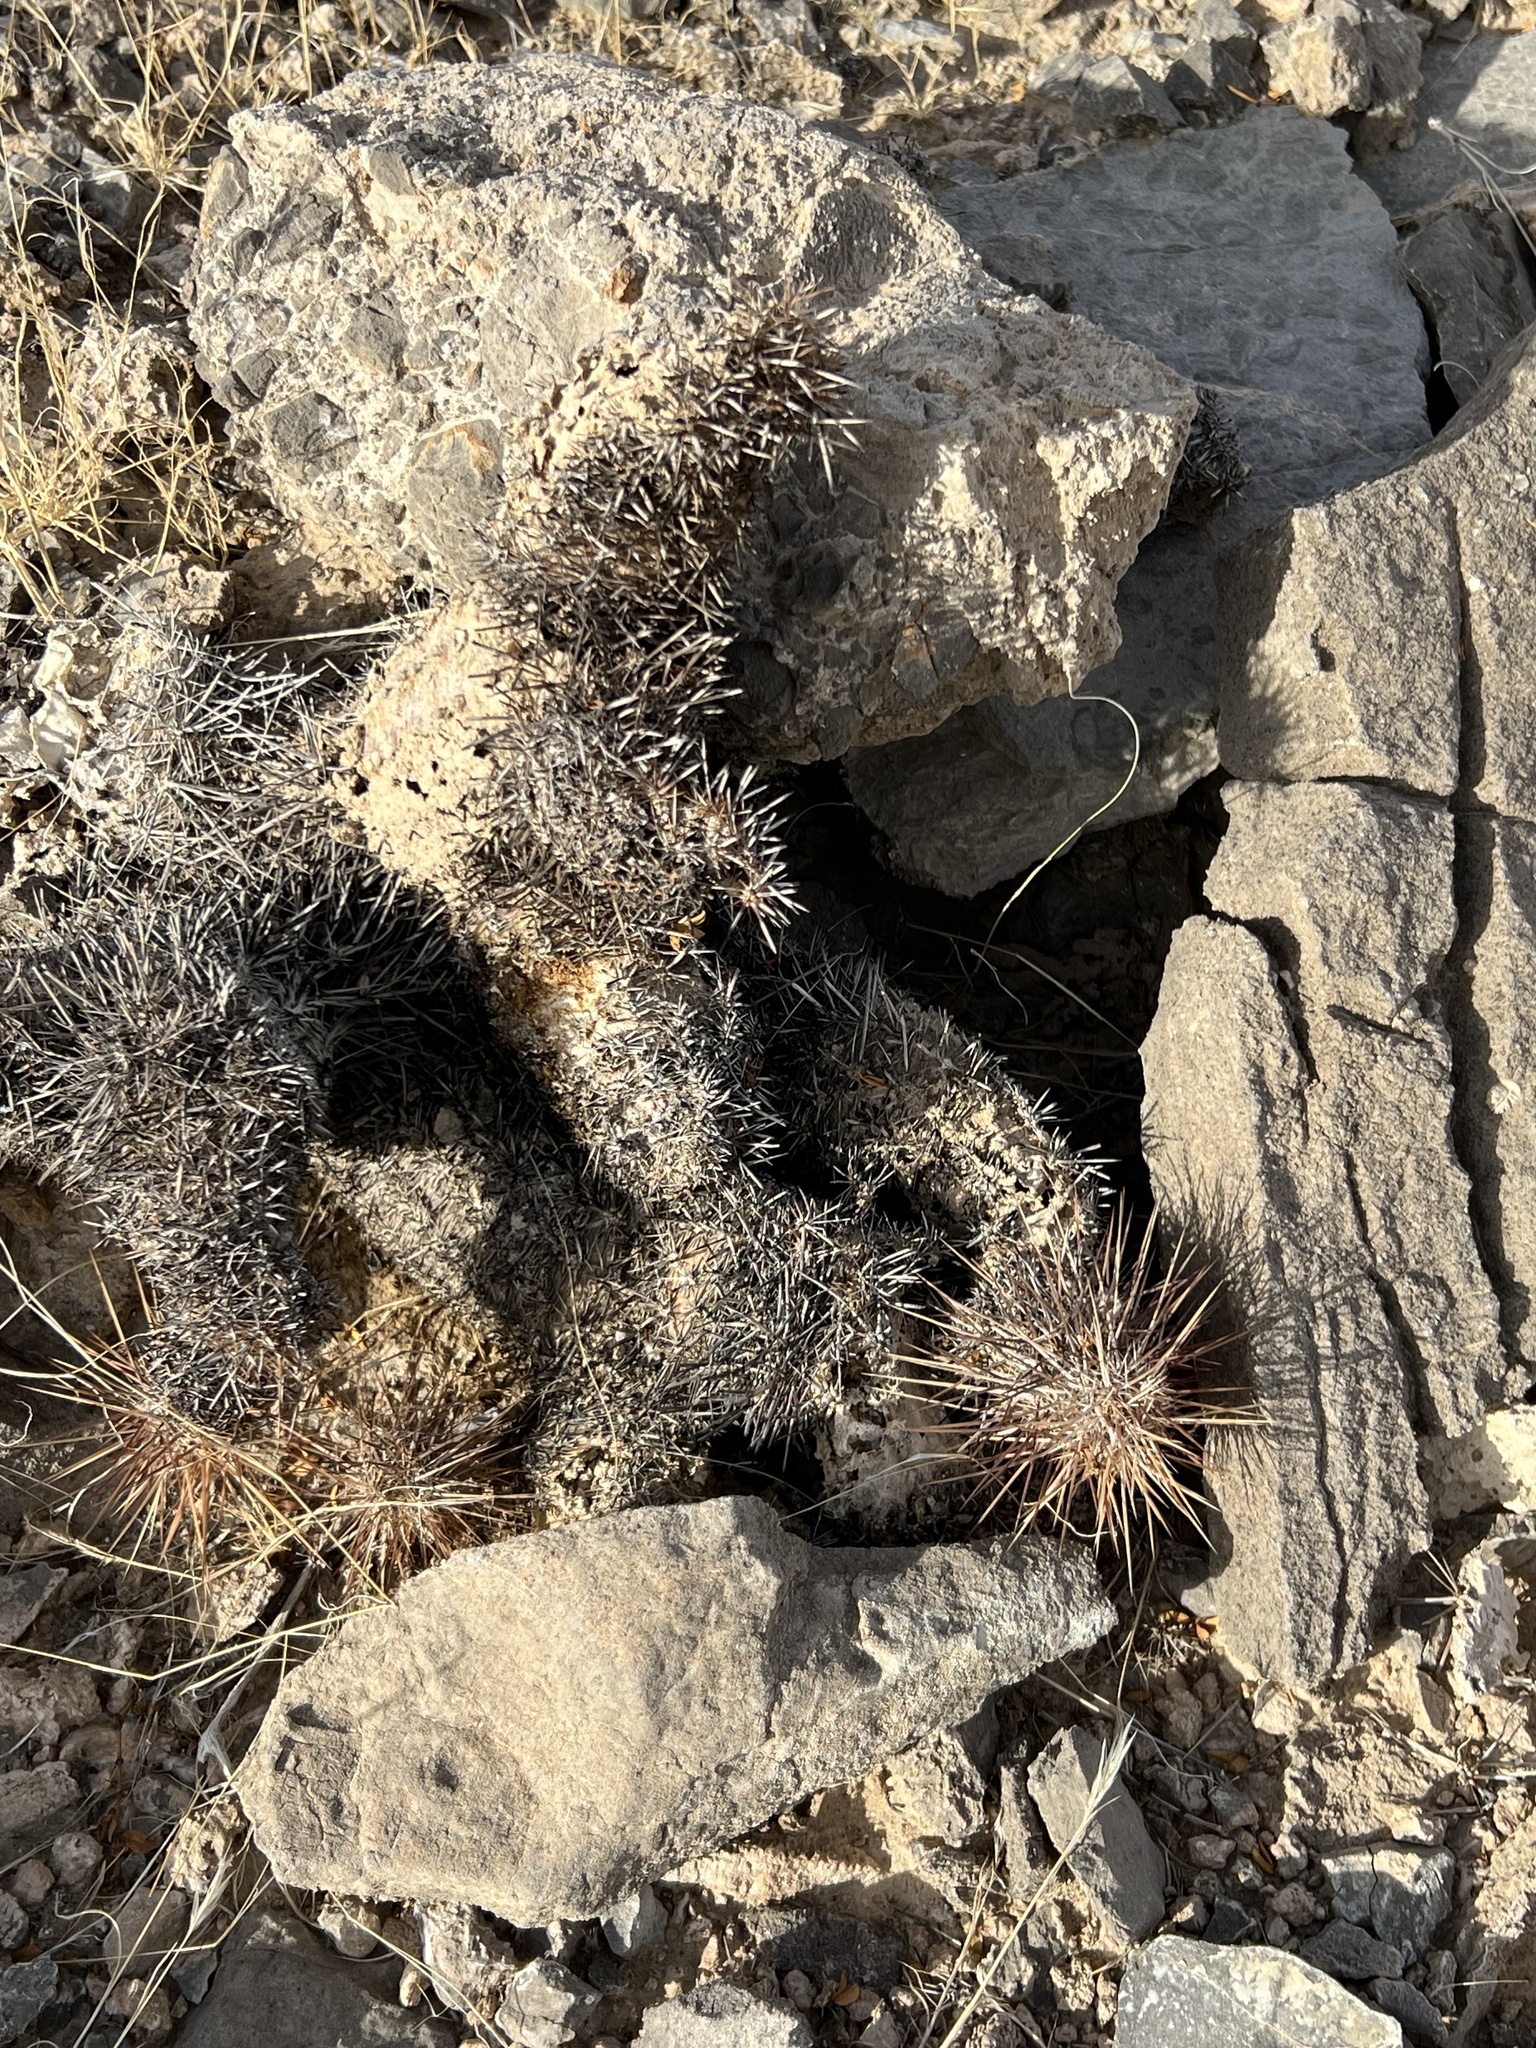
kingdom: Plantae
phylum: Tracheophyta
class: Magnoliopsida
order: Caryophyllales
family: Cactaceae
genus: Echinocereus
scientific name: Echinocereus engelmannii
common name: Engelmann's hedgehog cactus
